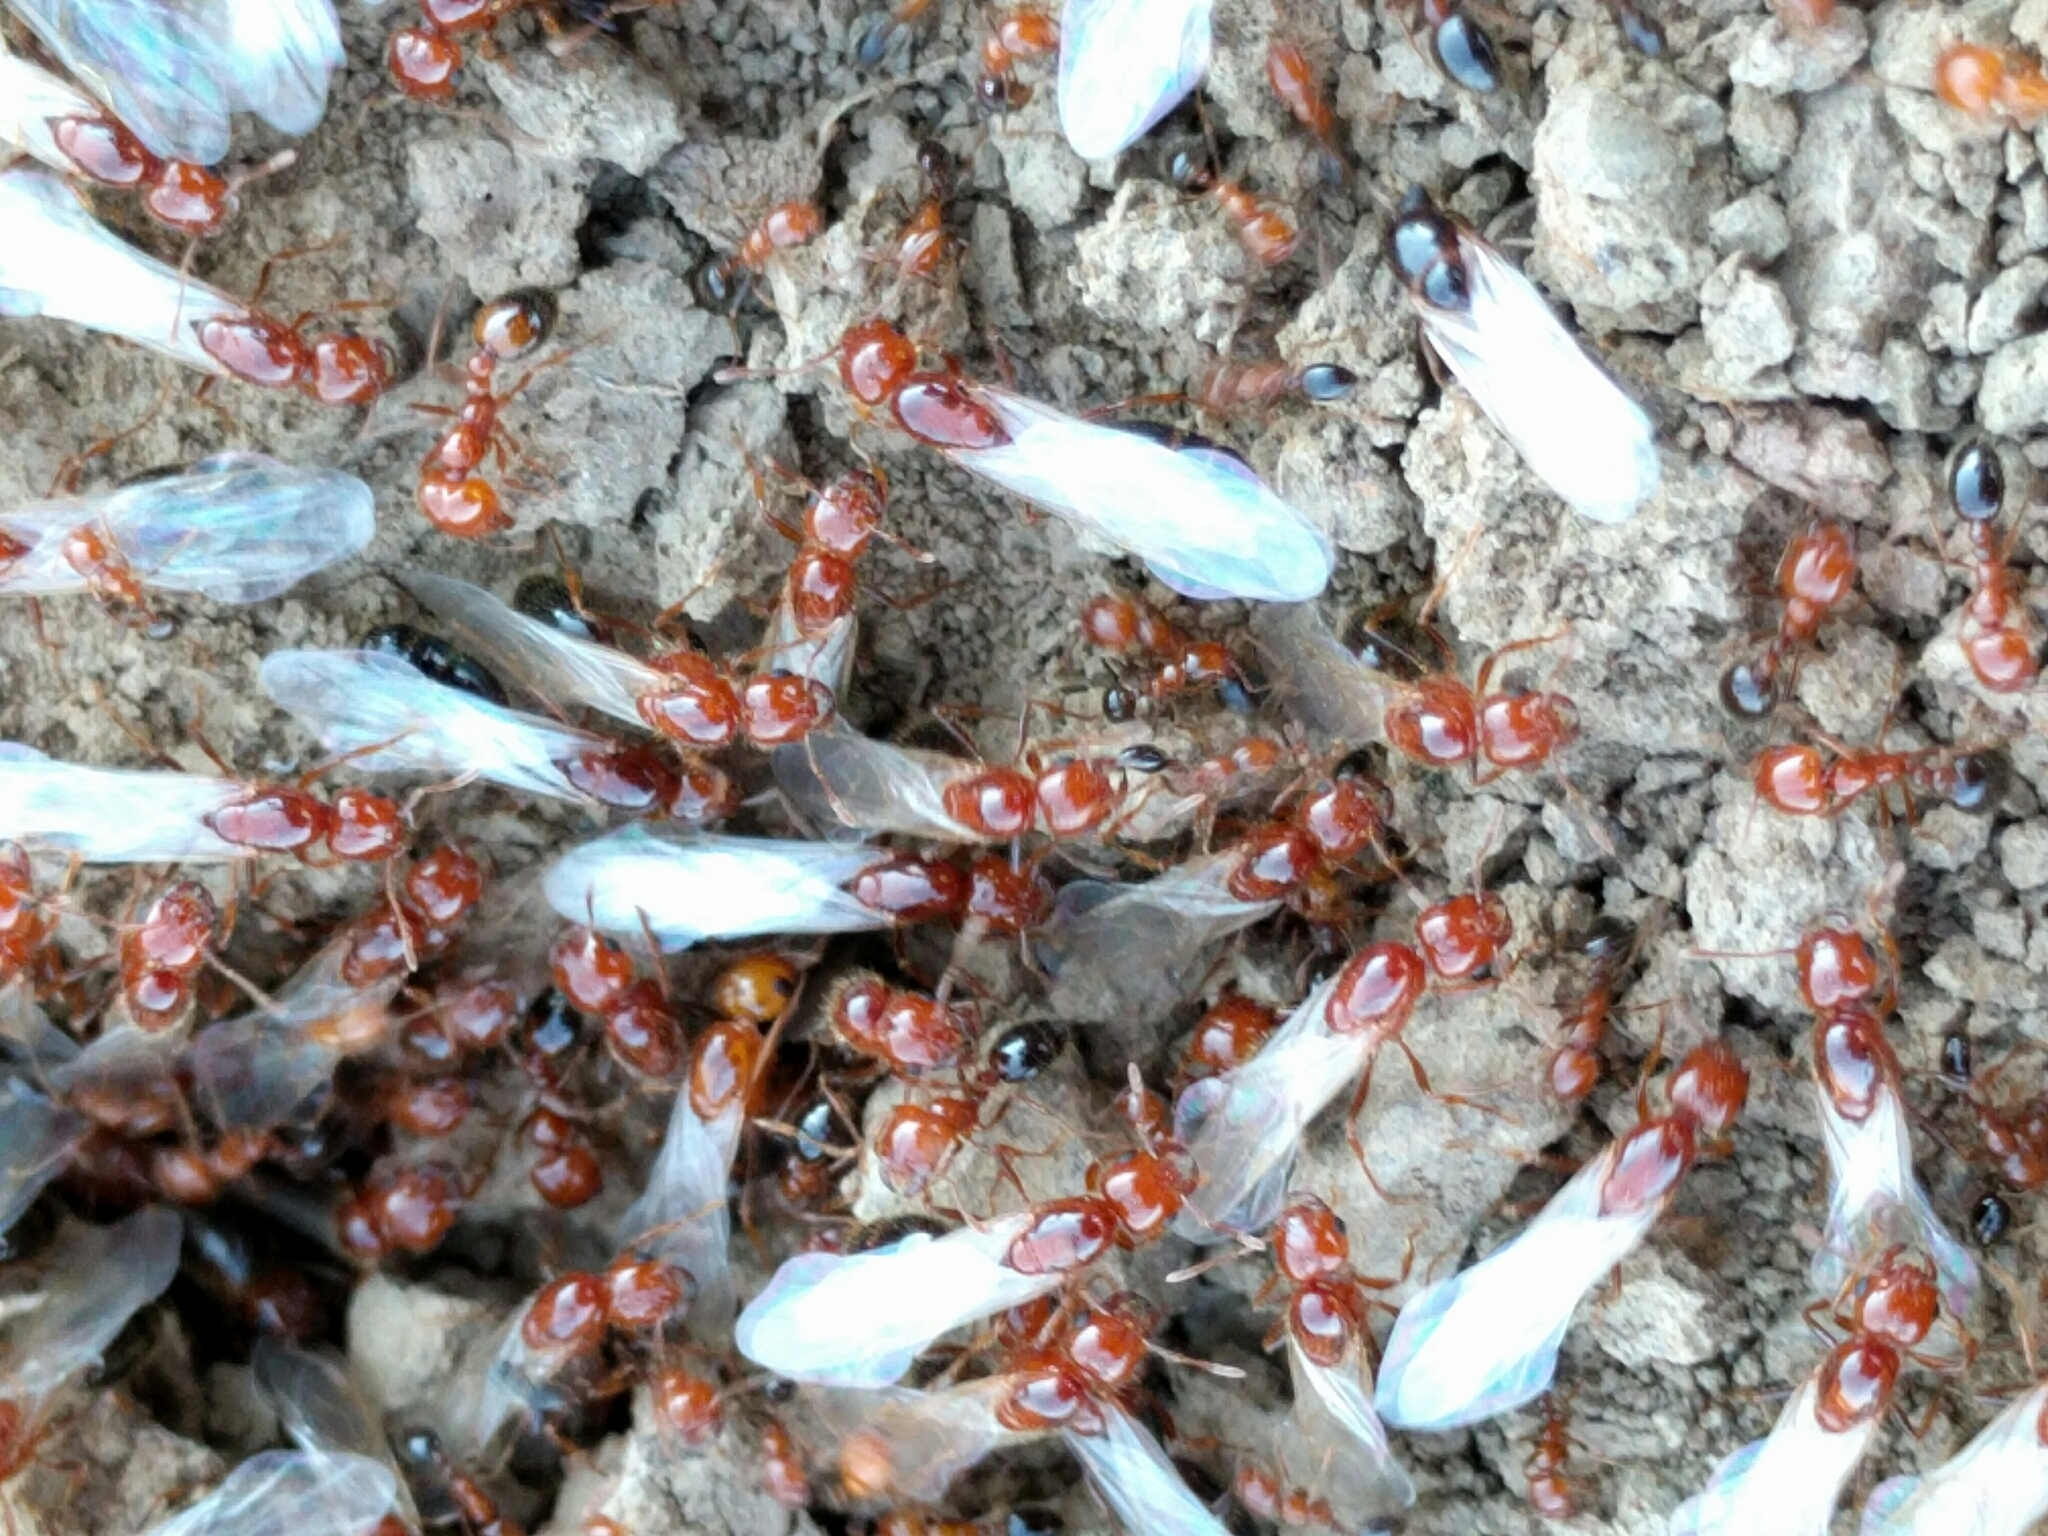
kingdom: Animalia
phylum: Arthropoda
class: Insecta
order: Hymenoptera
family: Formicidae
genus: Solenopsis
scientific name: Solenopsis xyloni
